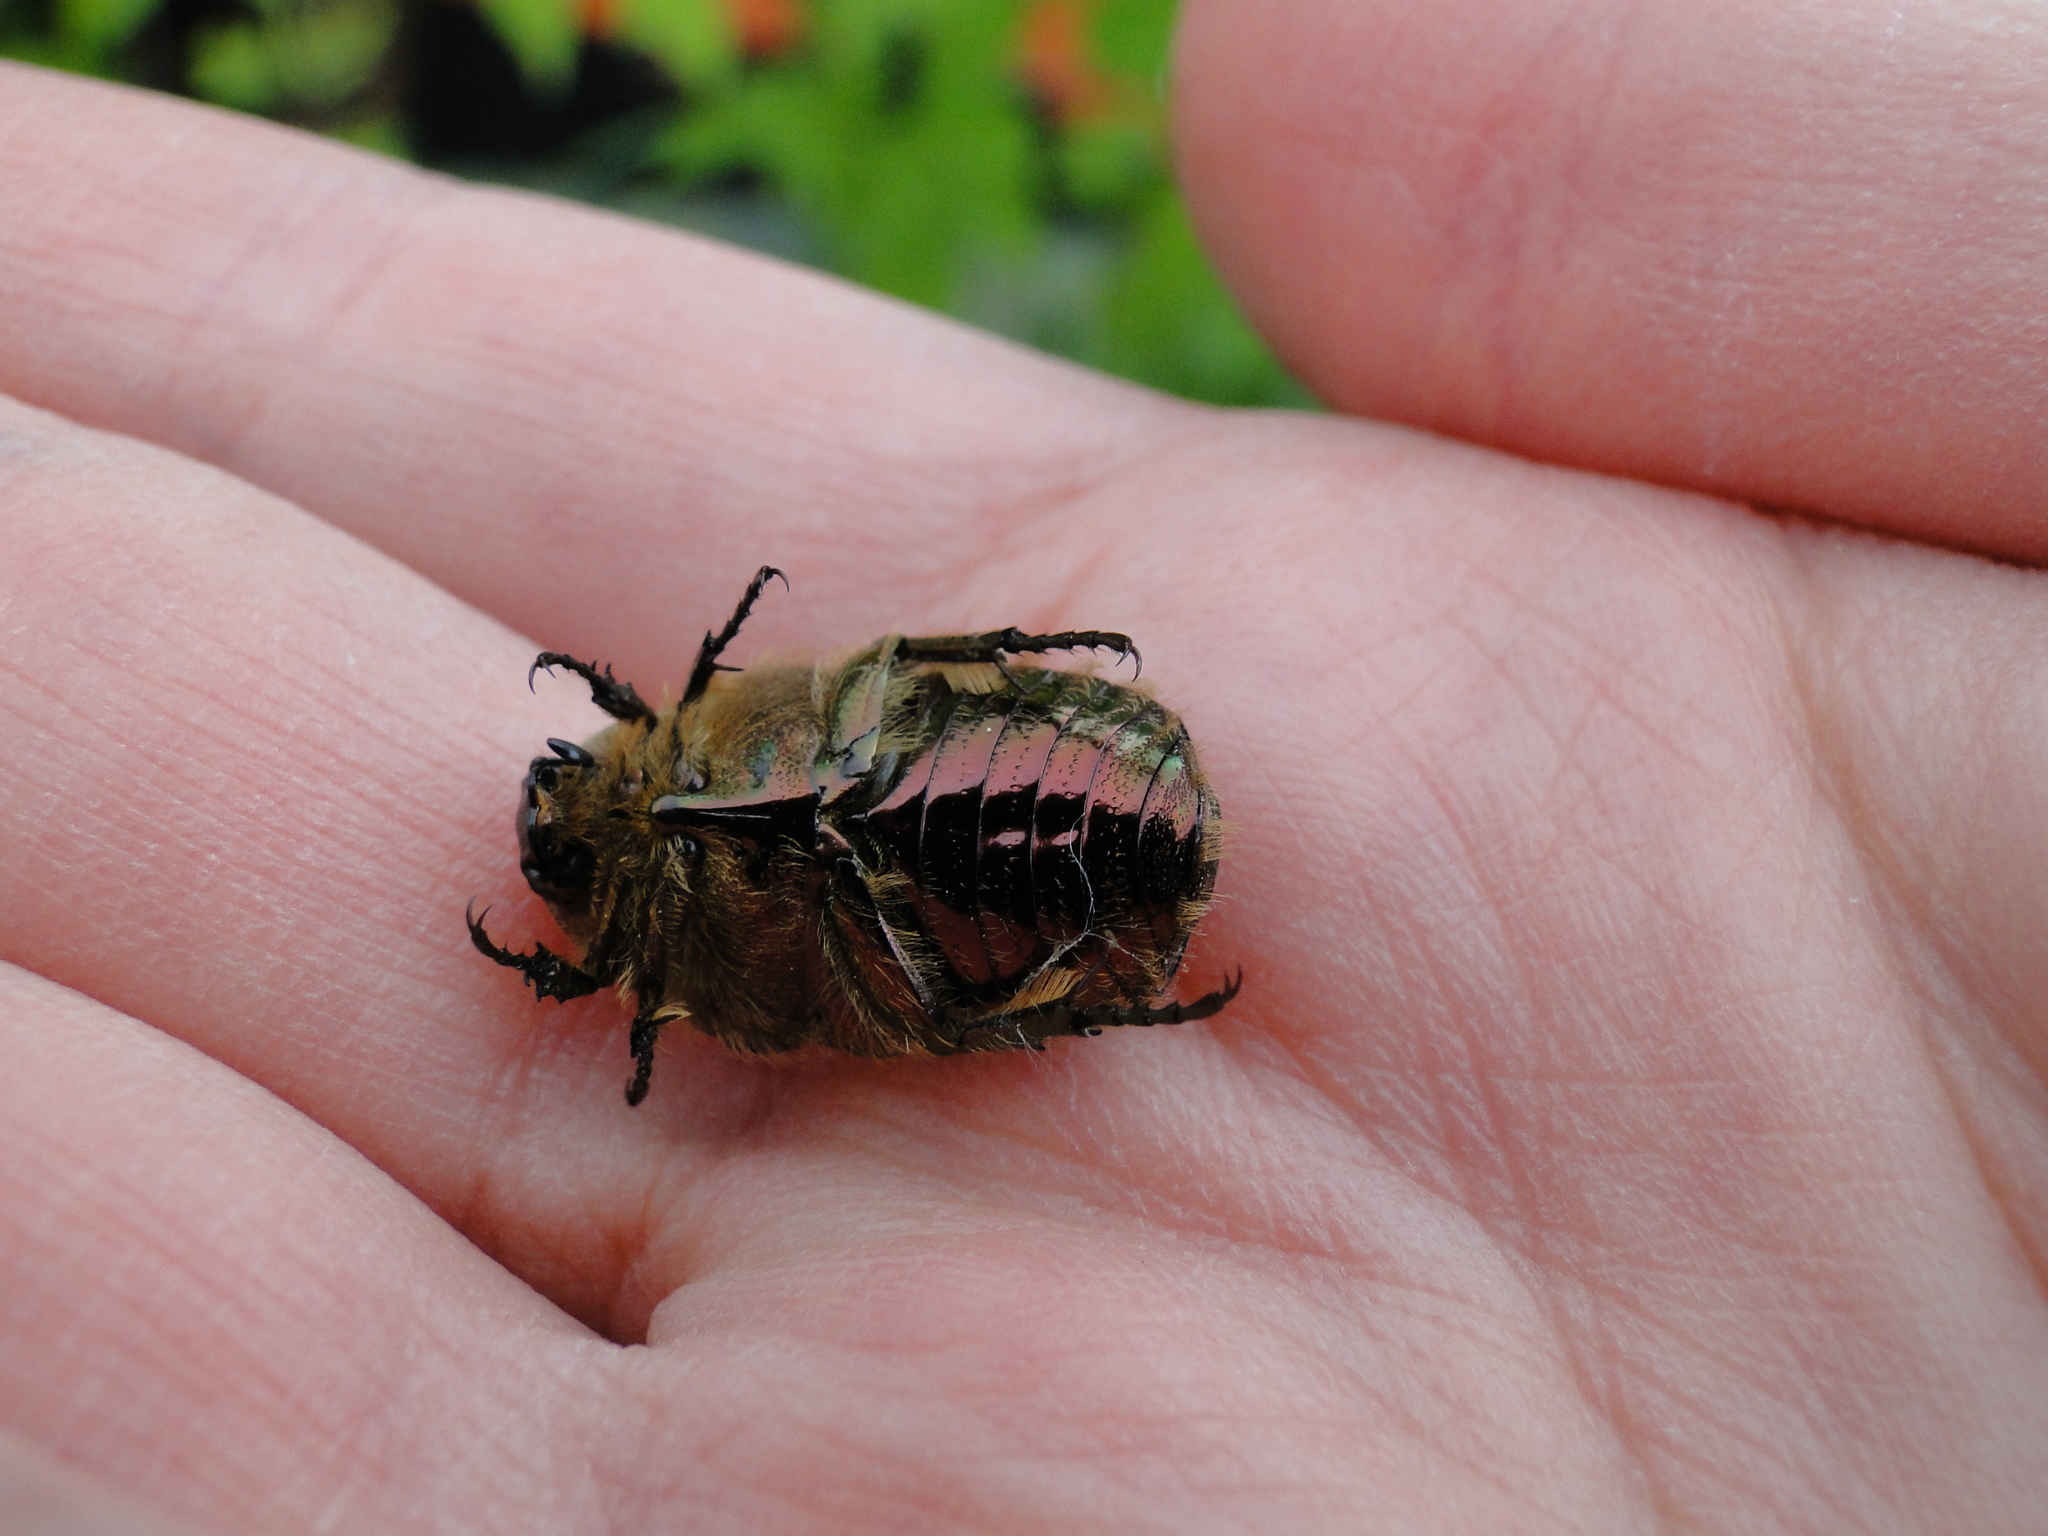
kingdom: Animalia
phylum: Arthropoda
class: Insecta
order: Coleoptera
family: Scarabaeidae
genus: Cetonia
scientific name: Cetonia aurata
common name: Rose chafer
